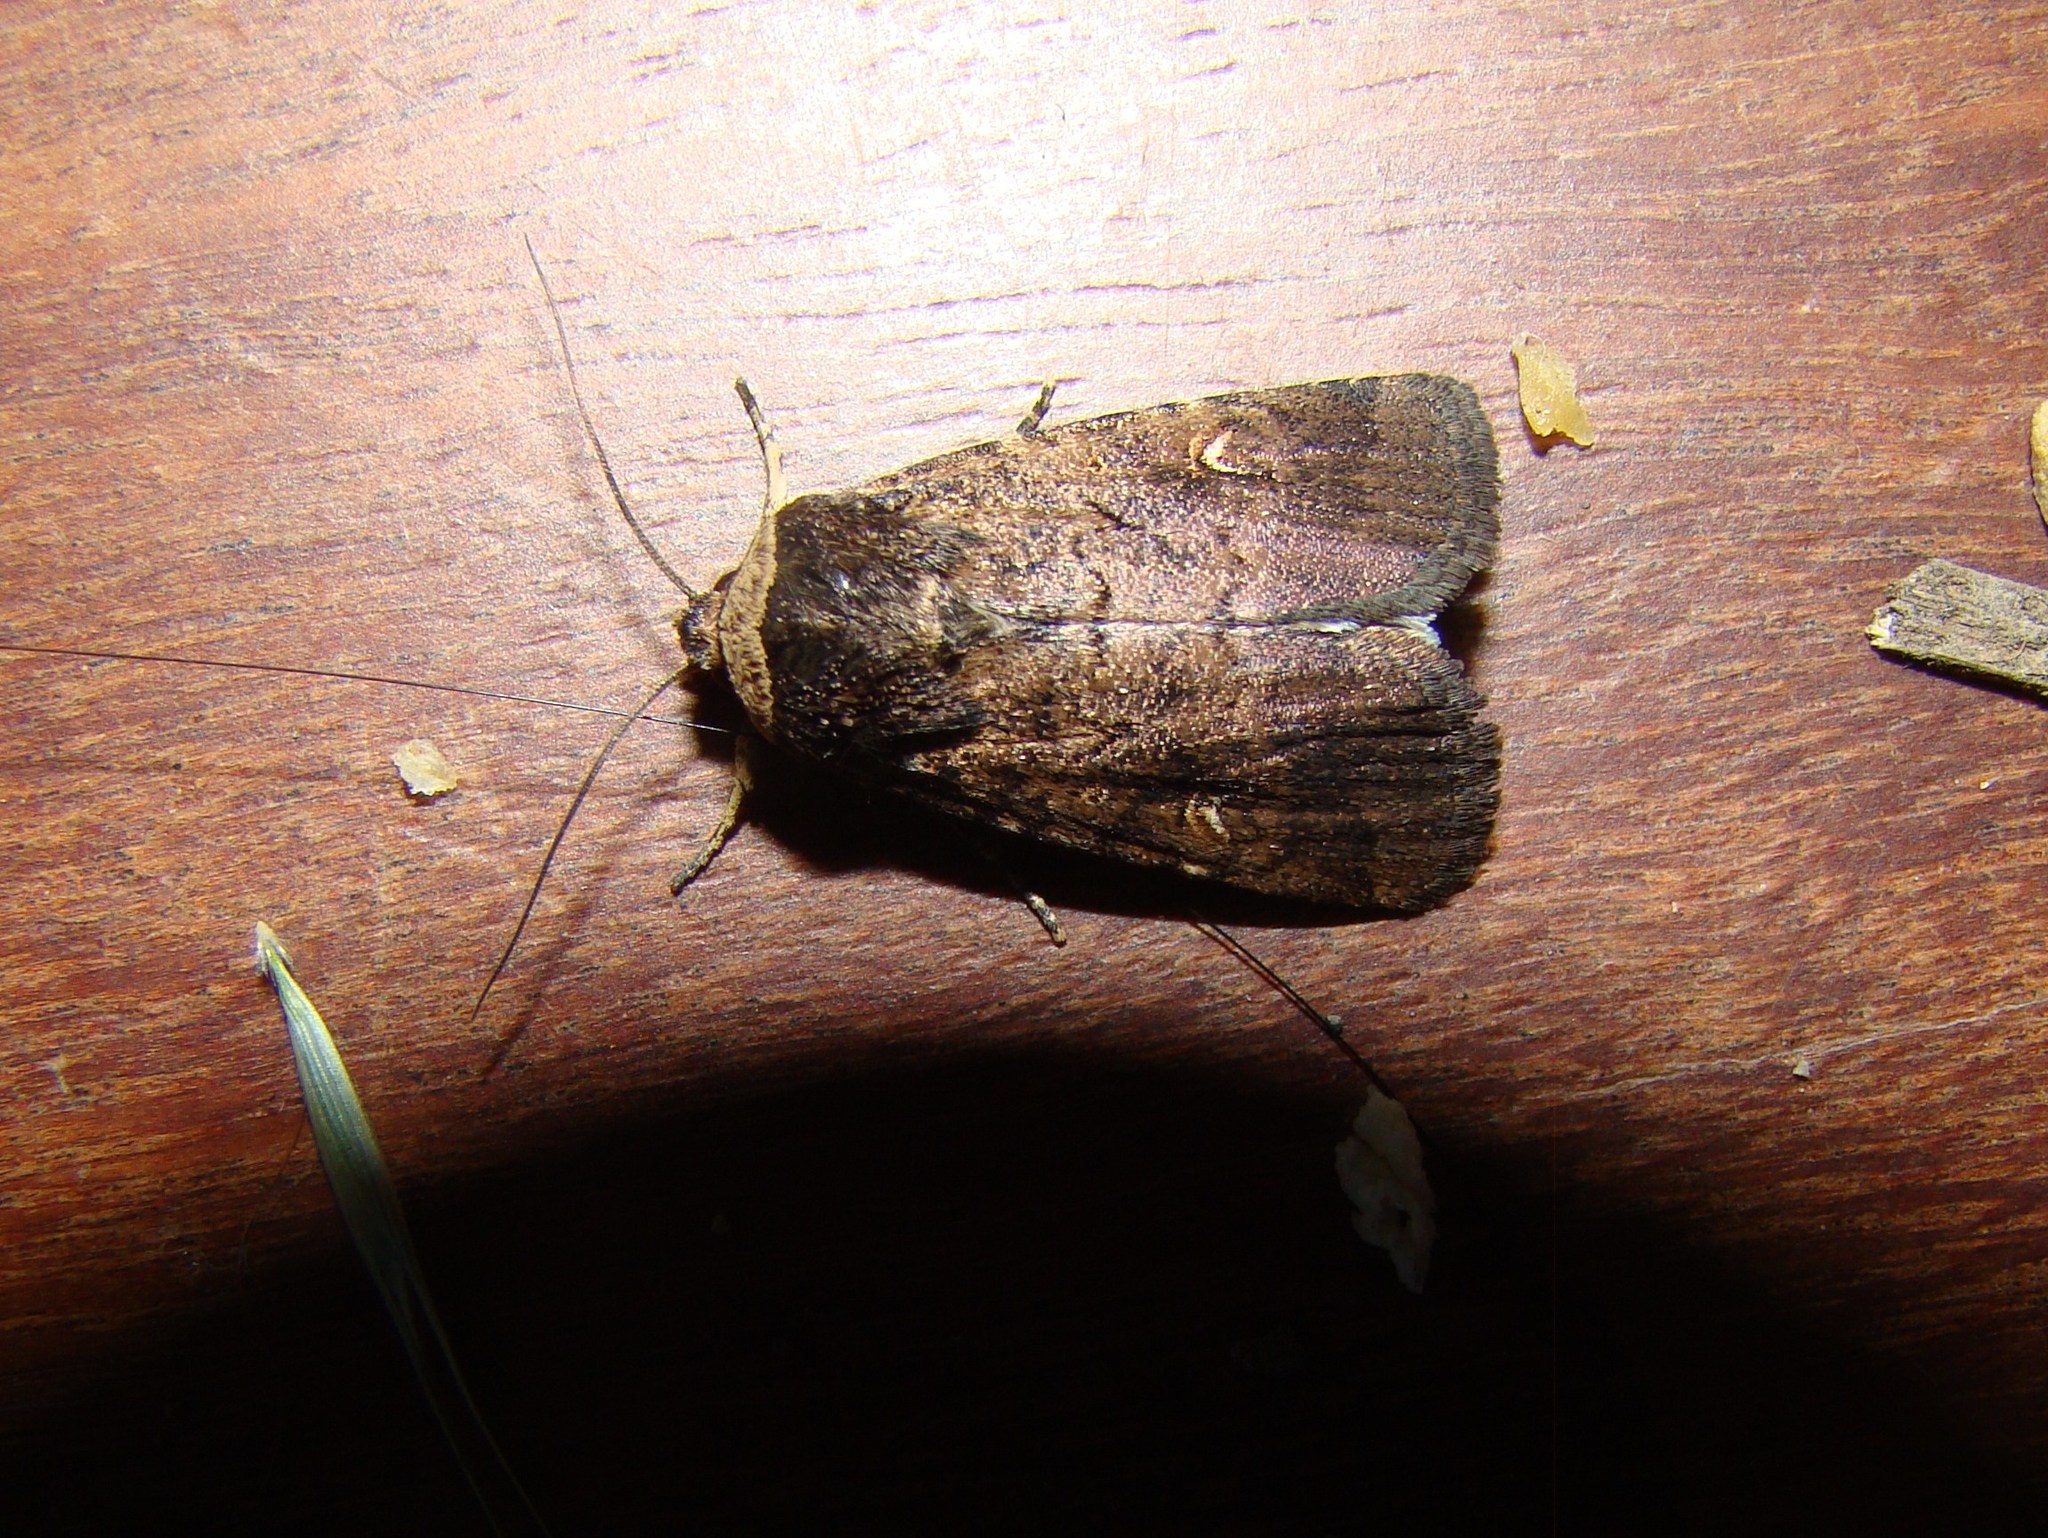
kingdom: Animalia
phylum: Arthropoda
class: Insecta
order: Lepidoptera
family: Noctuidae
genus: Proteuxoa
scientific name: Proteuxoa tetronycha
